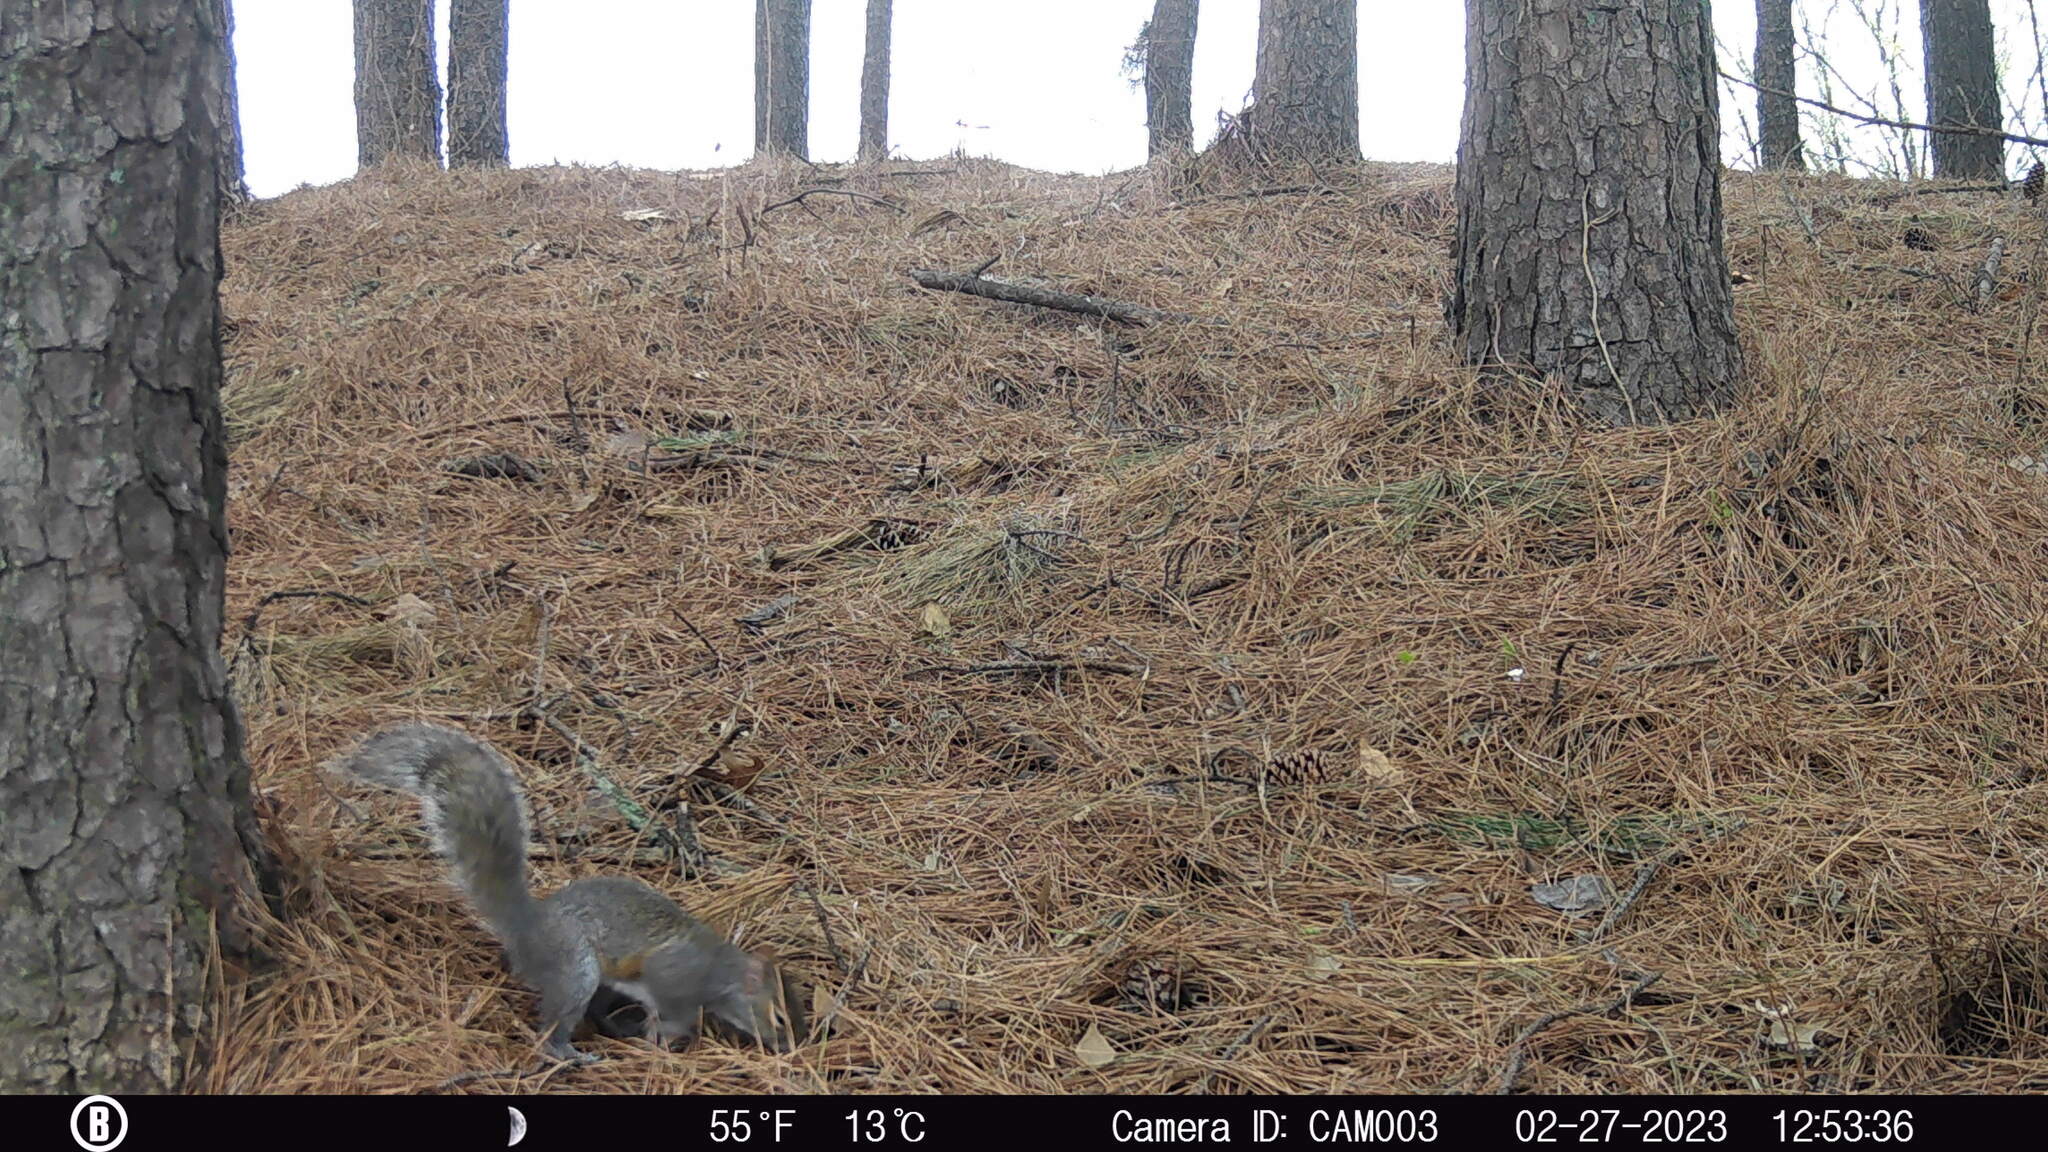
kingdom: Animalia
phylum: Chordata
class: Mammalia
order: Rodentia
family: Sciuridae
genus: Sciurus
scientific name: Sciurus carolinensis
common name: Eastern gray squirrel
